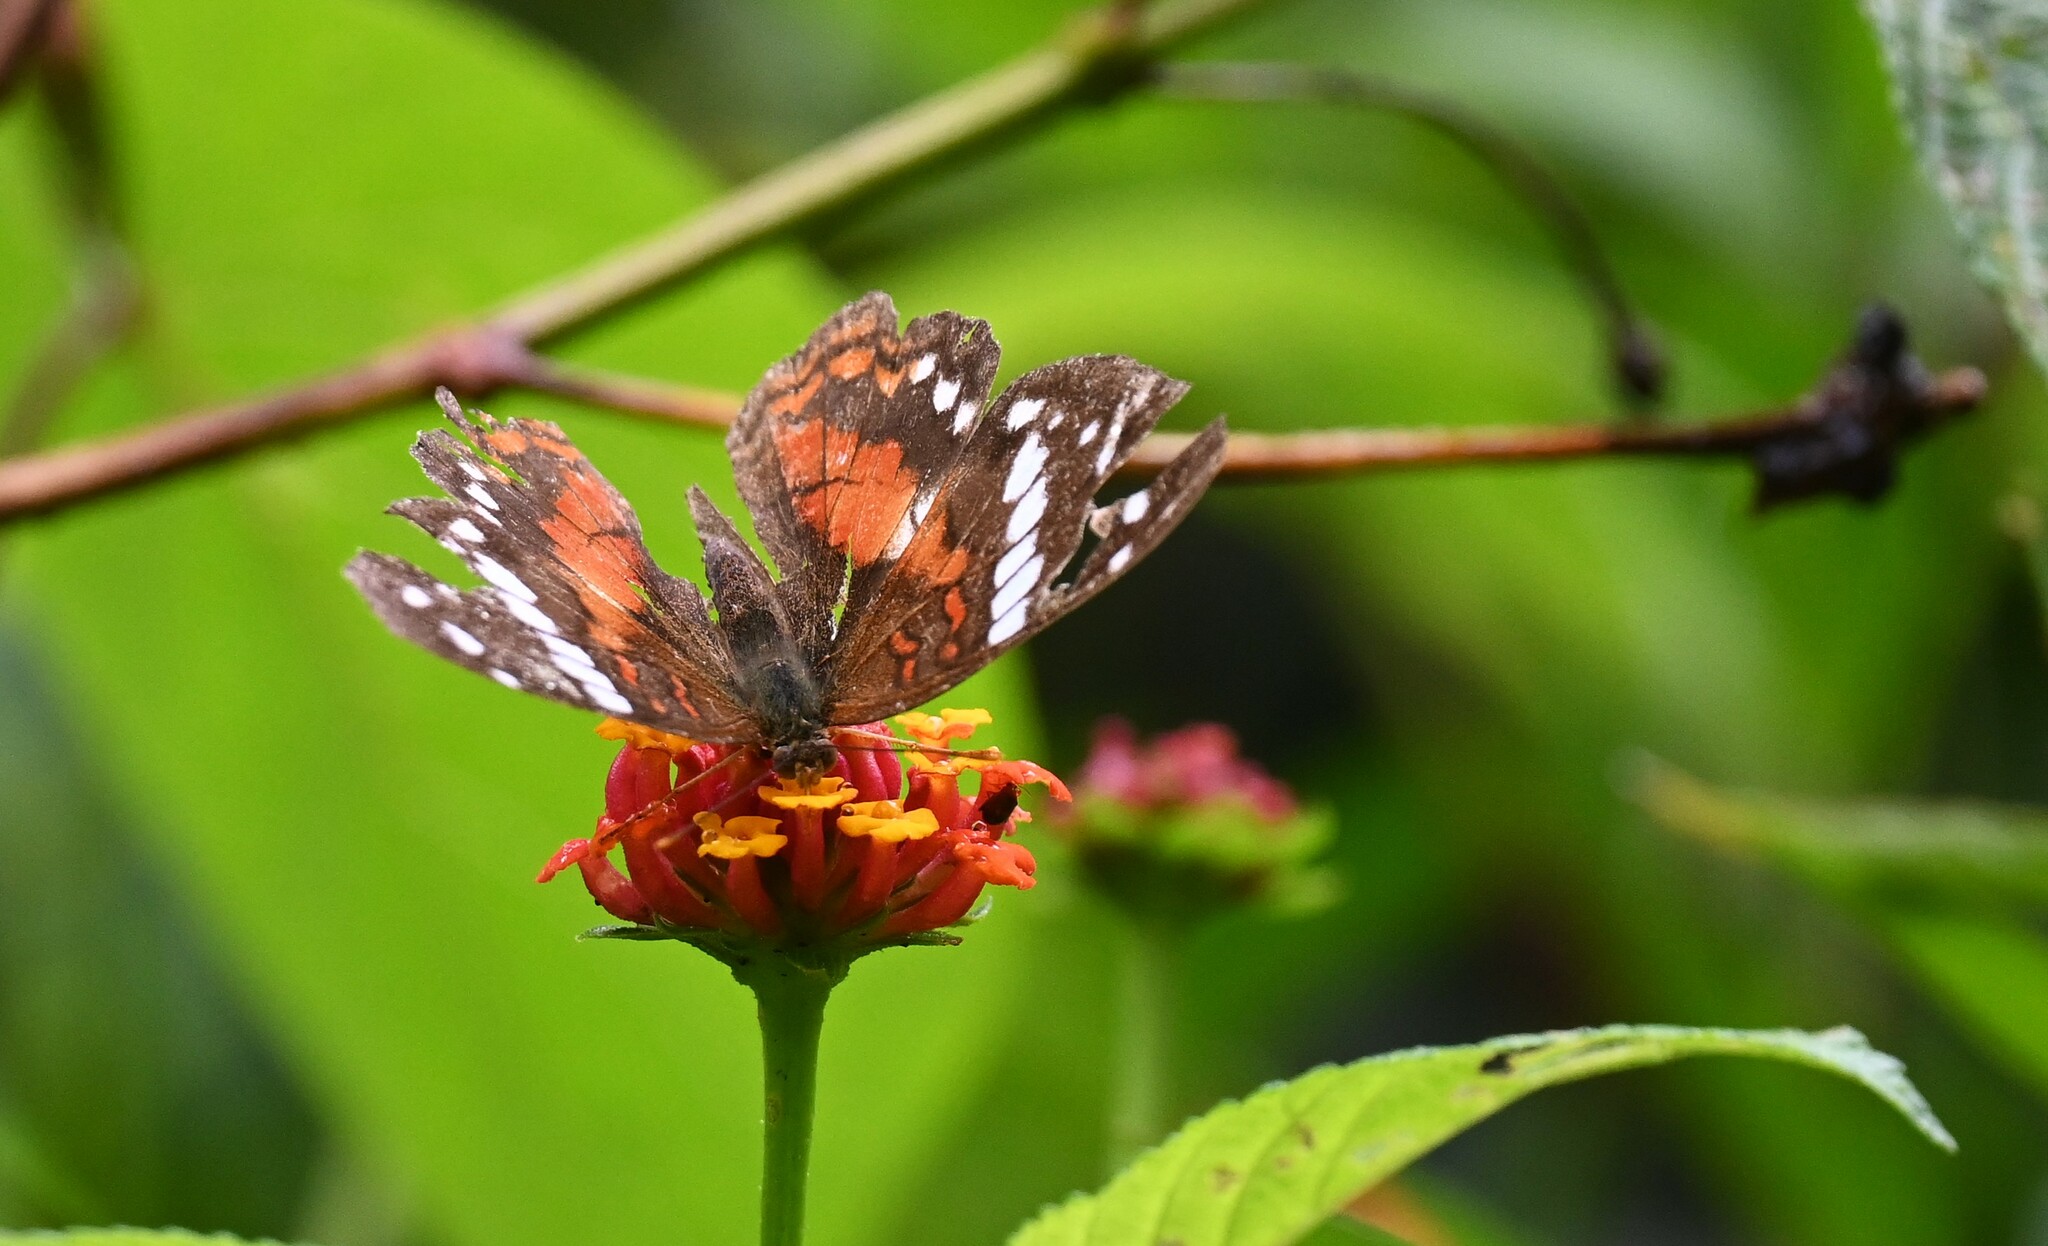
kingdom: Animalia
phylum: Arthropoda
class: Insecta
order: Lepidoptera
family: Nymphalidae
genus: Anartia
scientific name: Anartia amathea
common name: Red peacock
